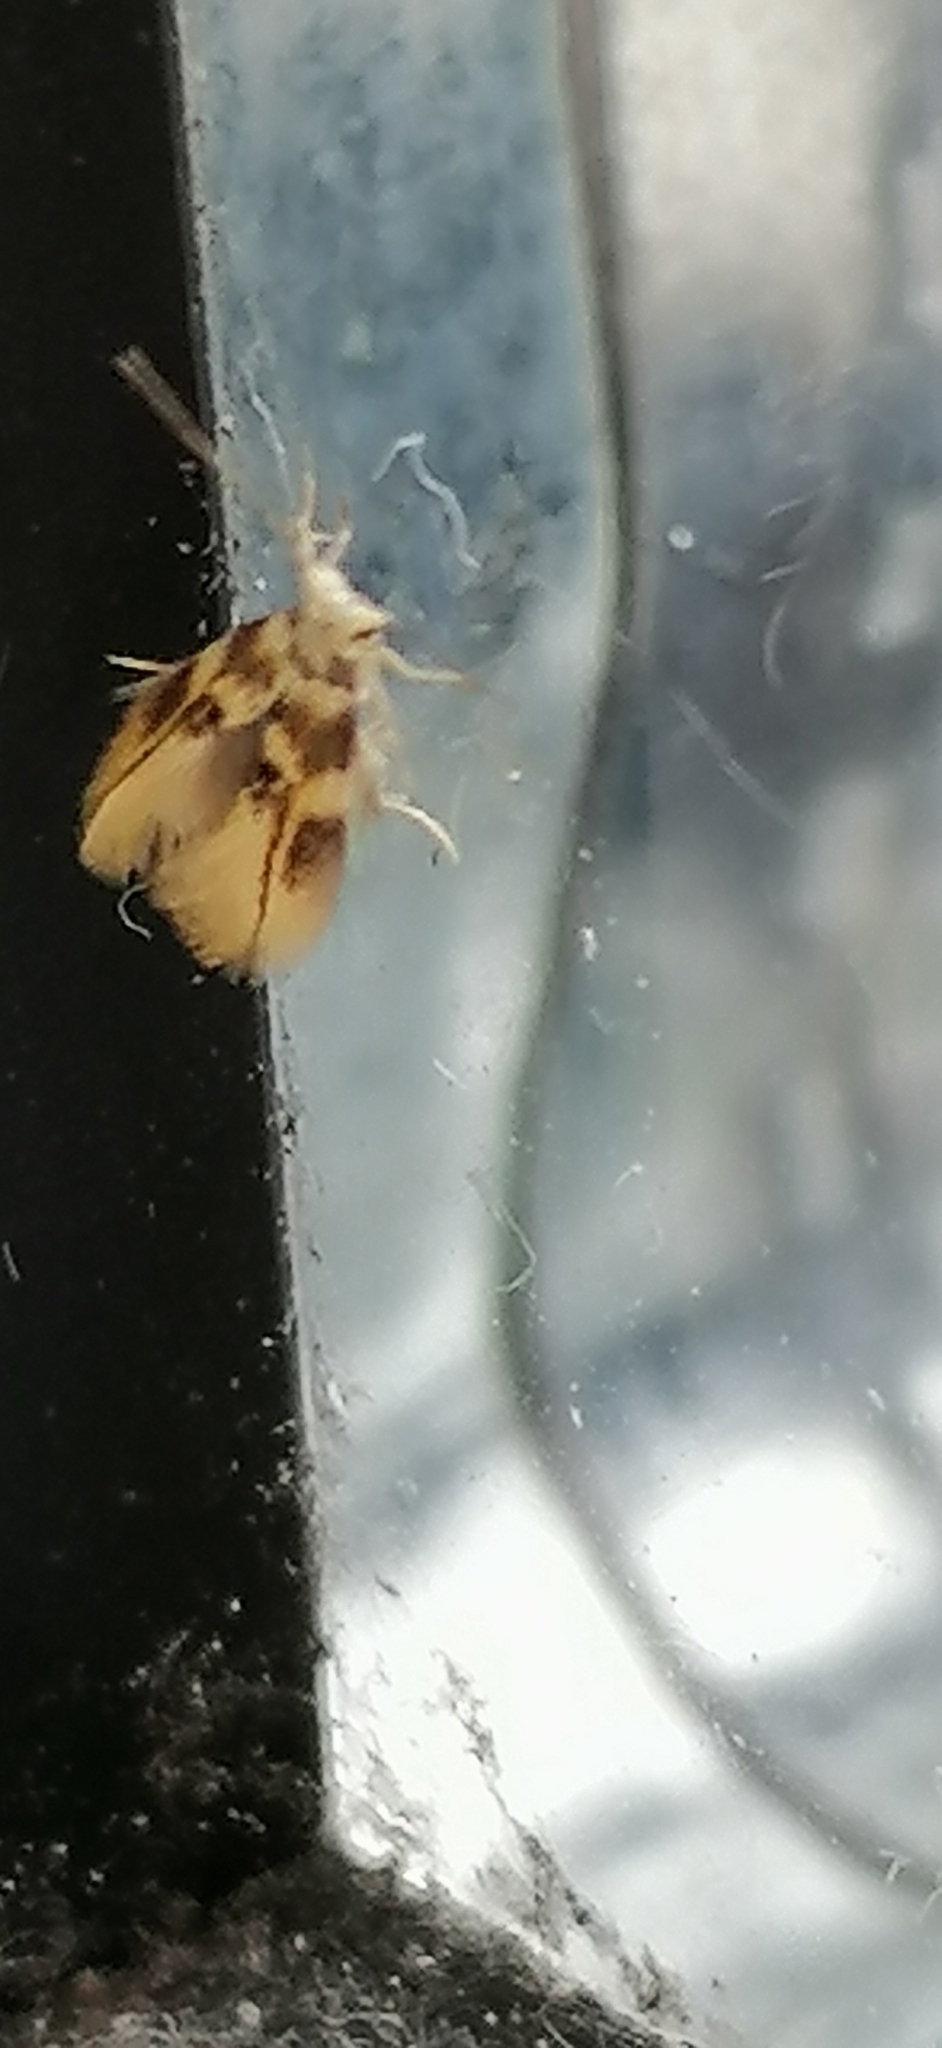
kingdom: Animalia
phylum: Arthropoda
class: Insecta
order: Lepidoptera
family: Bucculatricidae
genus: Bucculatrix
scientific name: Bucculatrix thoracella
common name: Lime bent-wing
